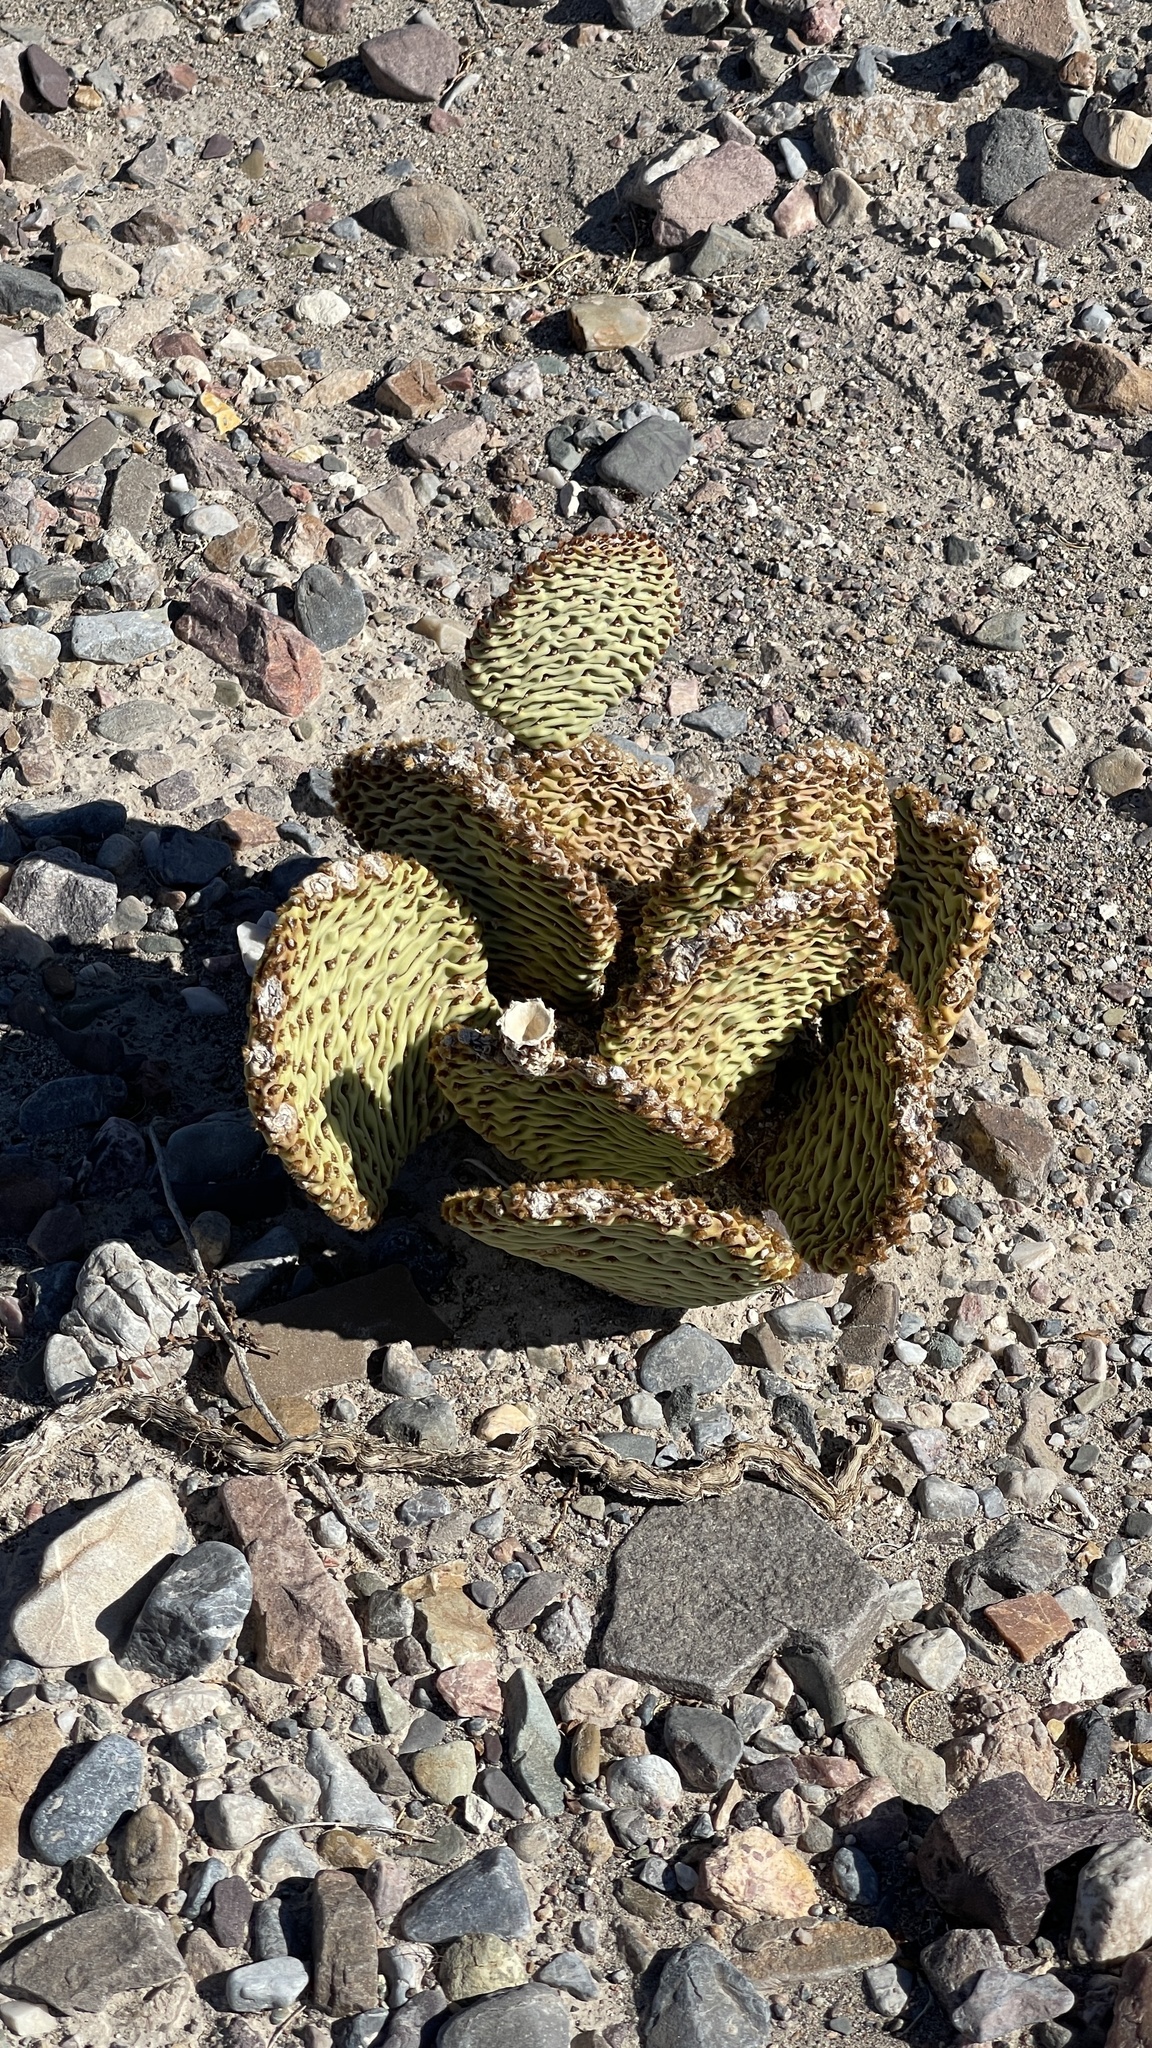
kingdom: Plantae
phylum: Tracheophyta
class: Magnoliopsida
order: Caryophyllales
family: Cactaceae
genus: Opuntia
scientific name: Opuntia basilaris
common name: Beavertail prickly-pear
